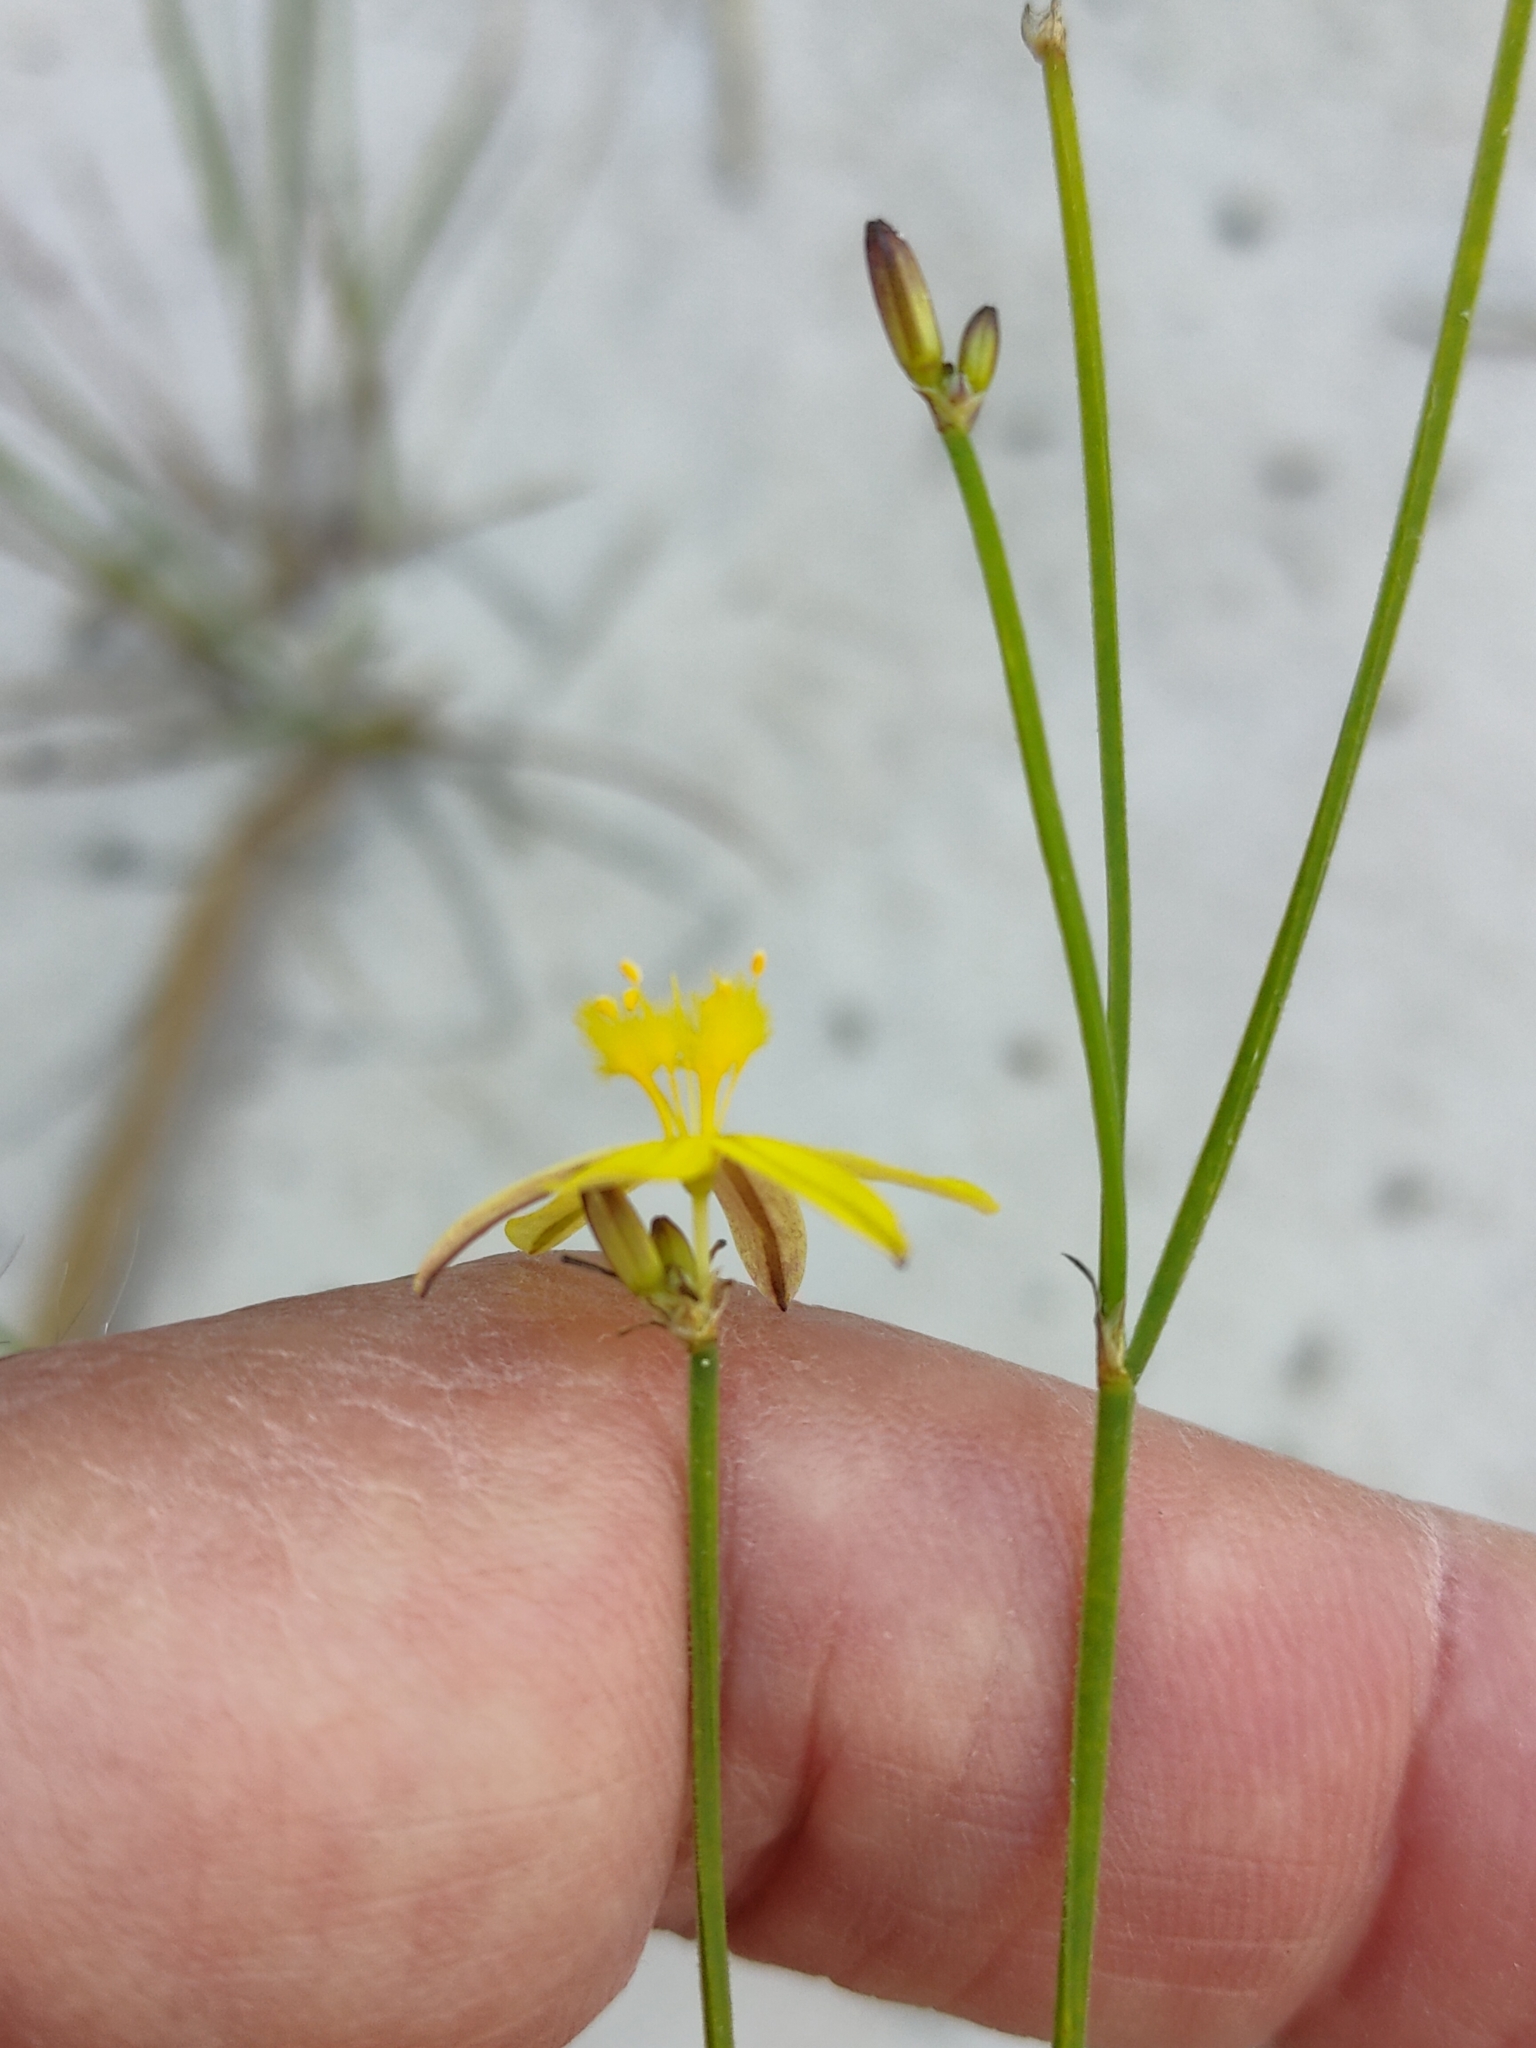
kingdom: Plantae
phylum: Tracheophyta
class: Liliopsida
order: Asparagales
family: Asphodelaceae
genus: Tricoryne
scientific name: Tricoryne elatior
